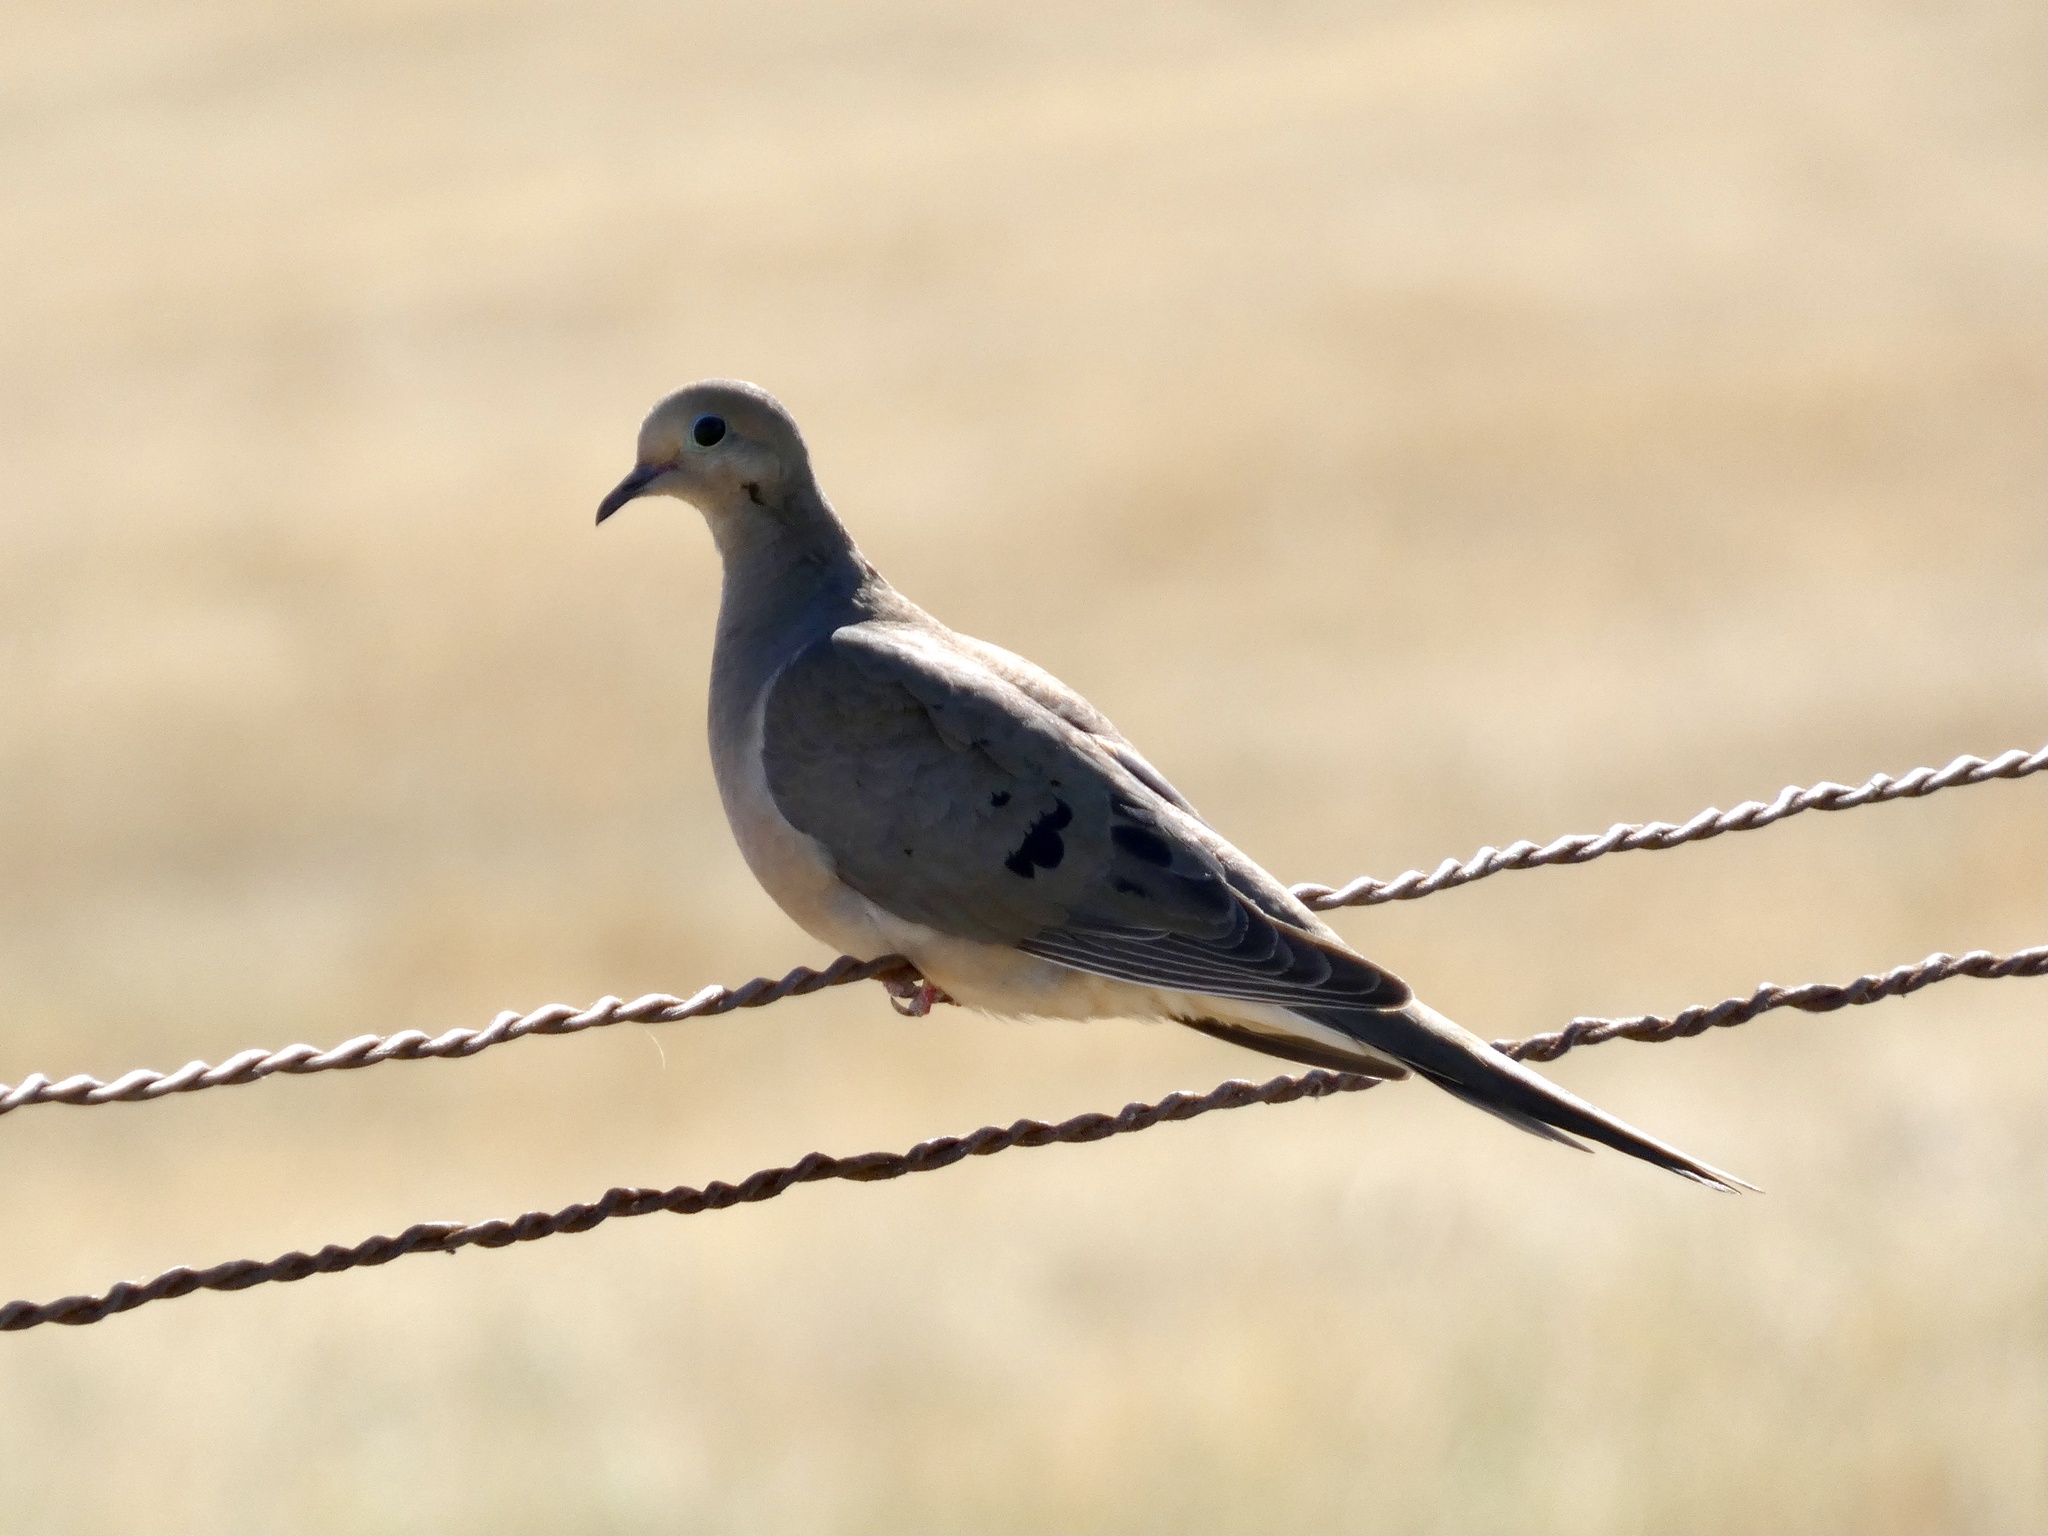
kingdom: Animalia
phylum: Chordata
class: Aves
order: Columbiformes
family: Columbidae
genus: Zenaida
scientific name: Zenaida macroura
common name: Mourning dove
